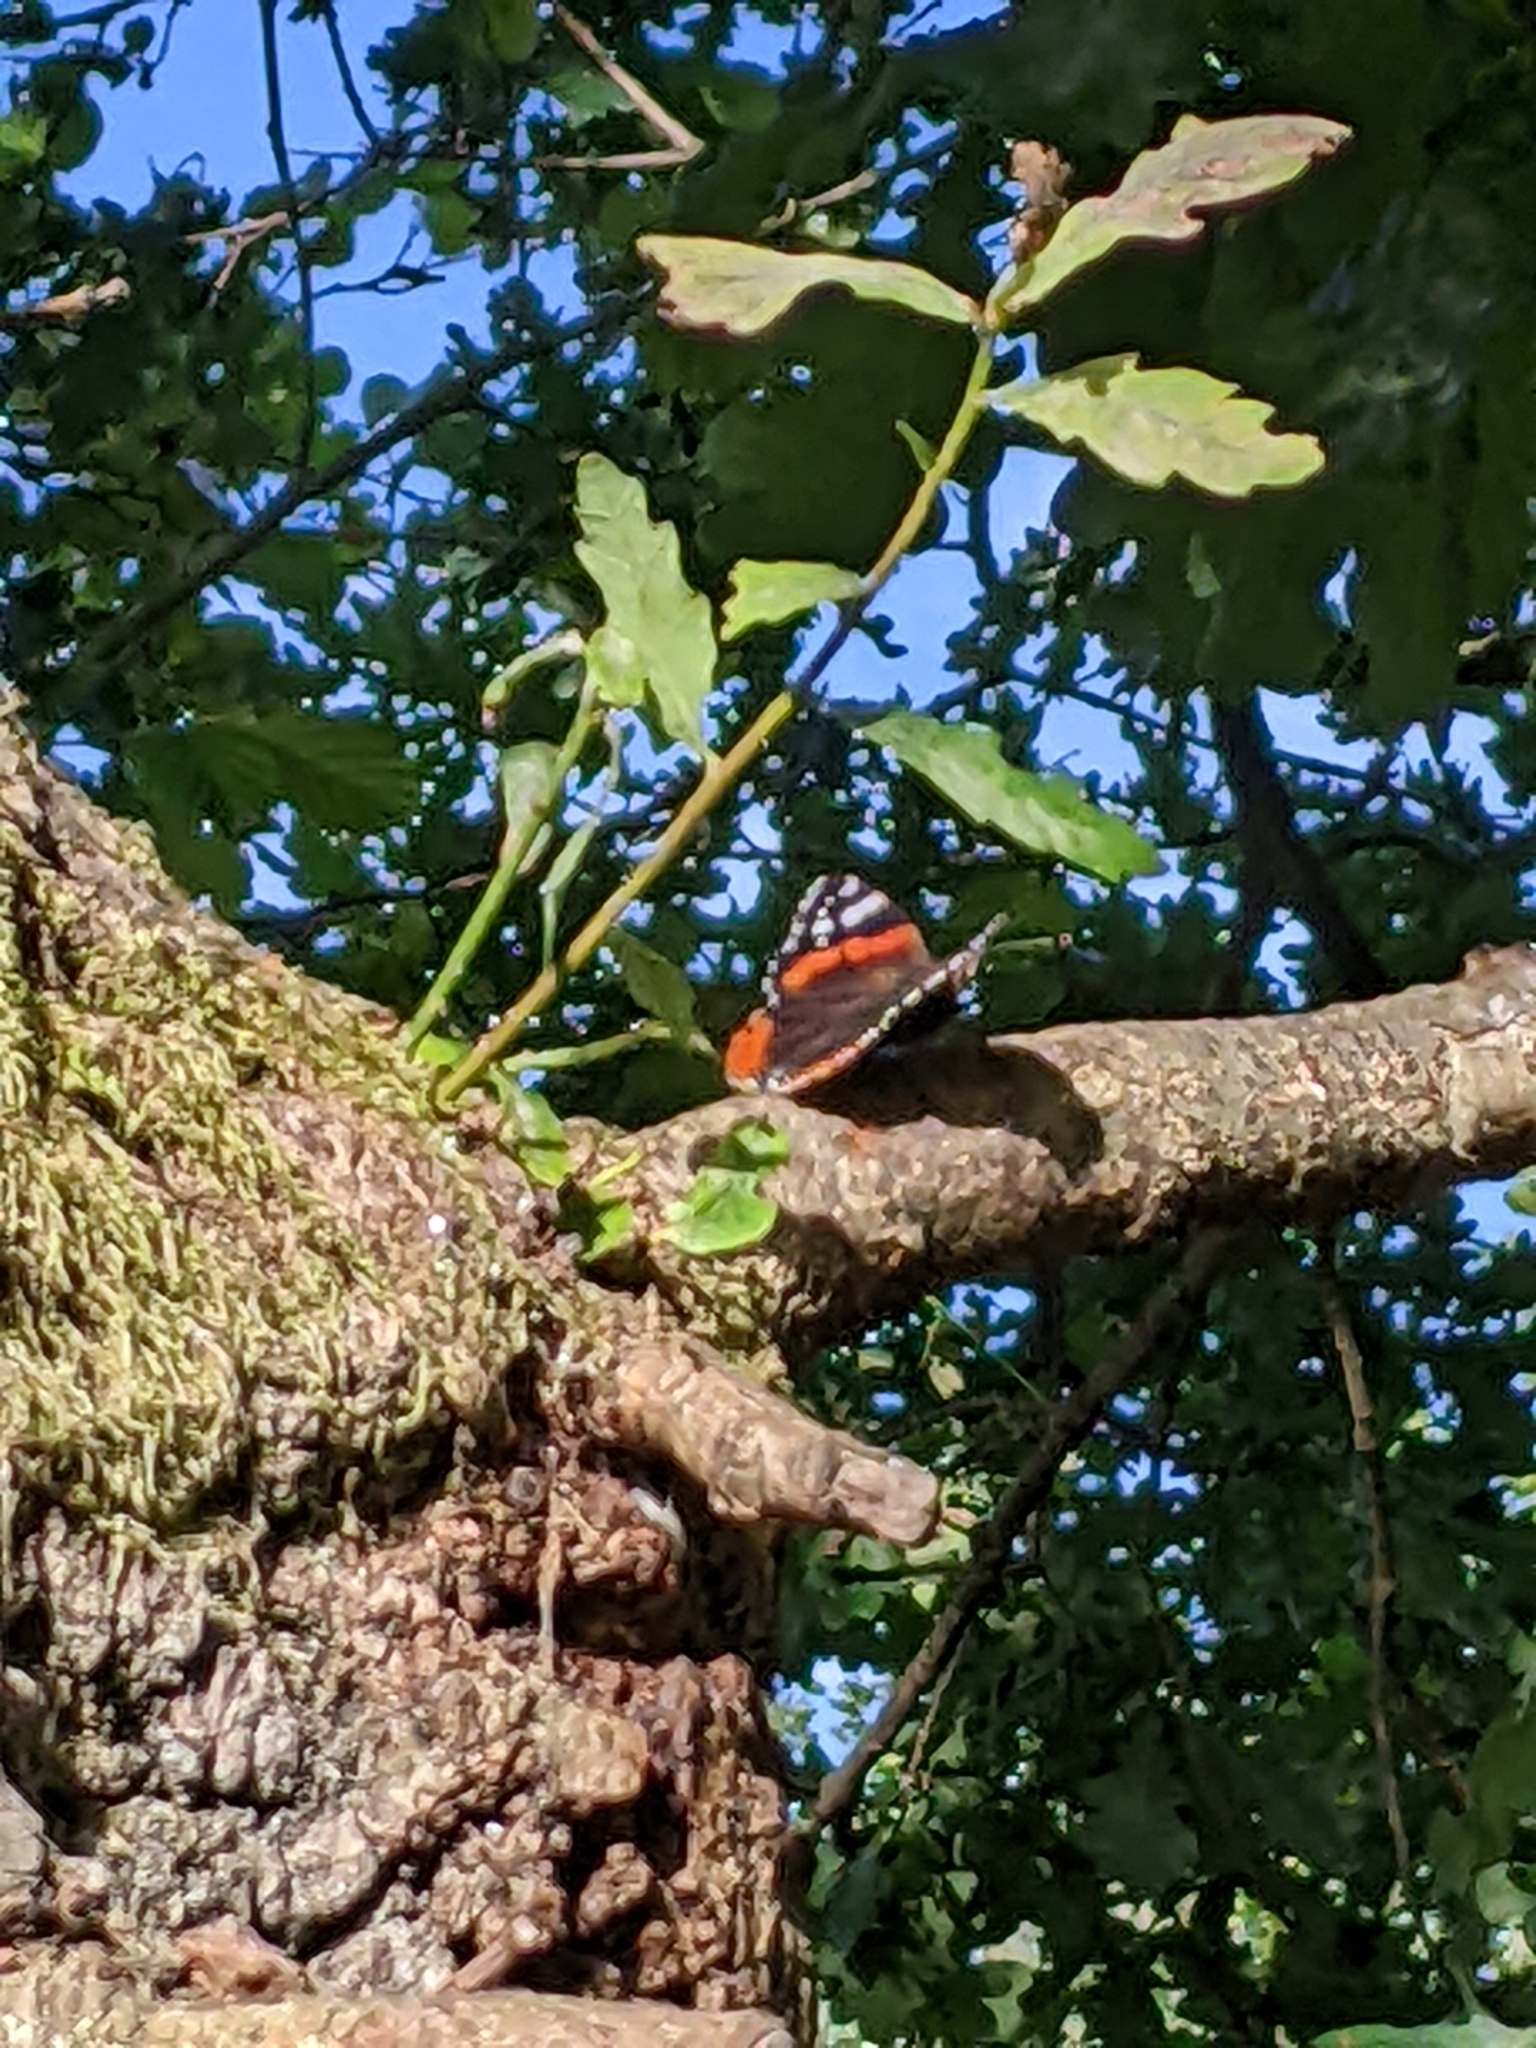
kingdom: Animalia
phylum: Arthropoda
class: Insecta
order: Lepidoptera
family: Nymphalidae
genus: Vanessa
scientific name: Vanessa atalanta
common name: Red admiral
